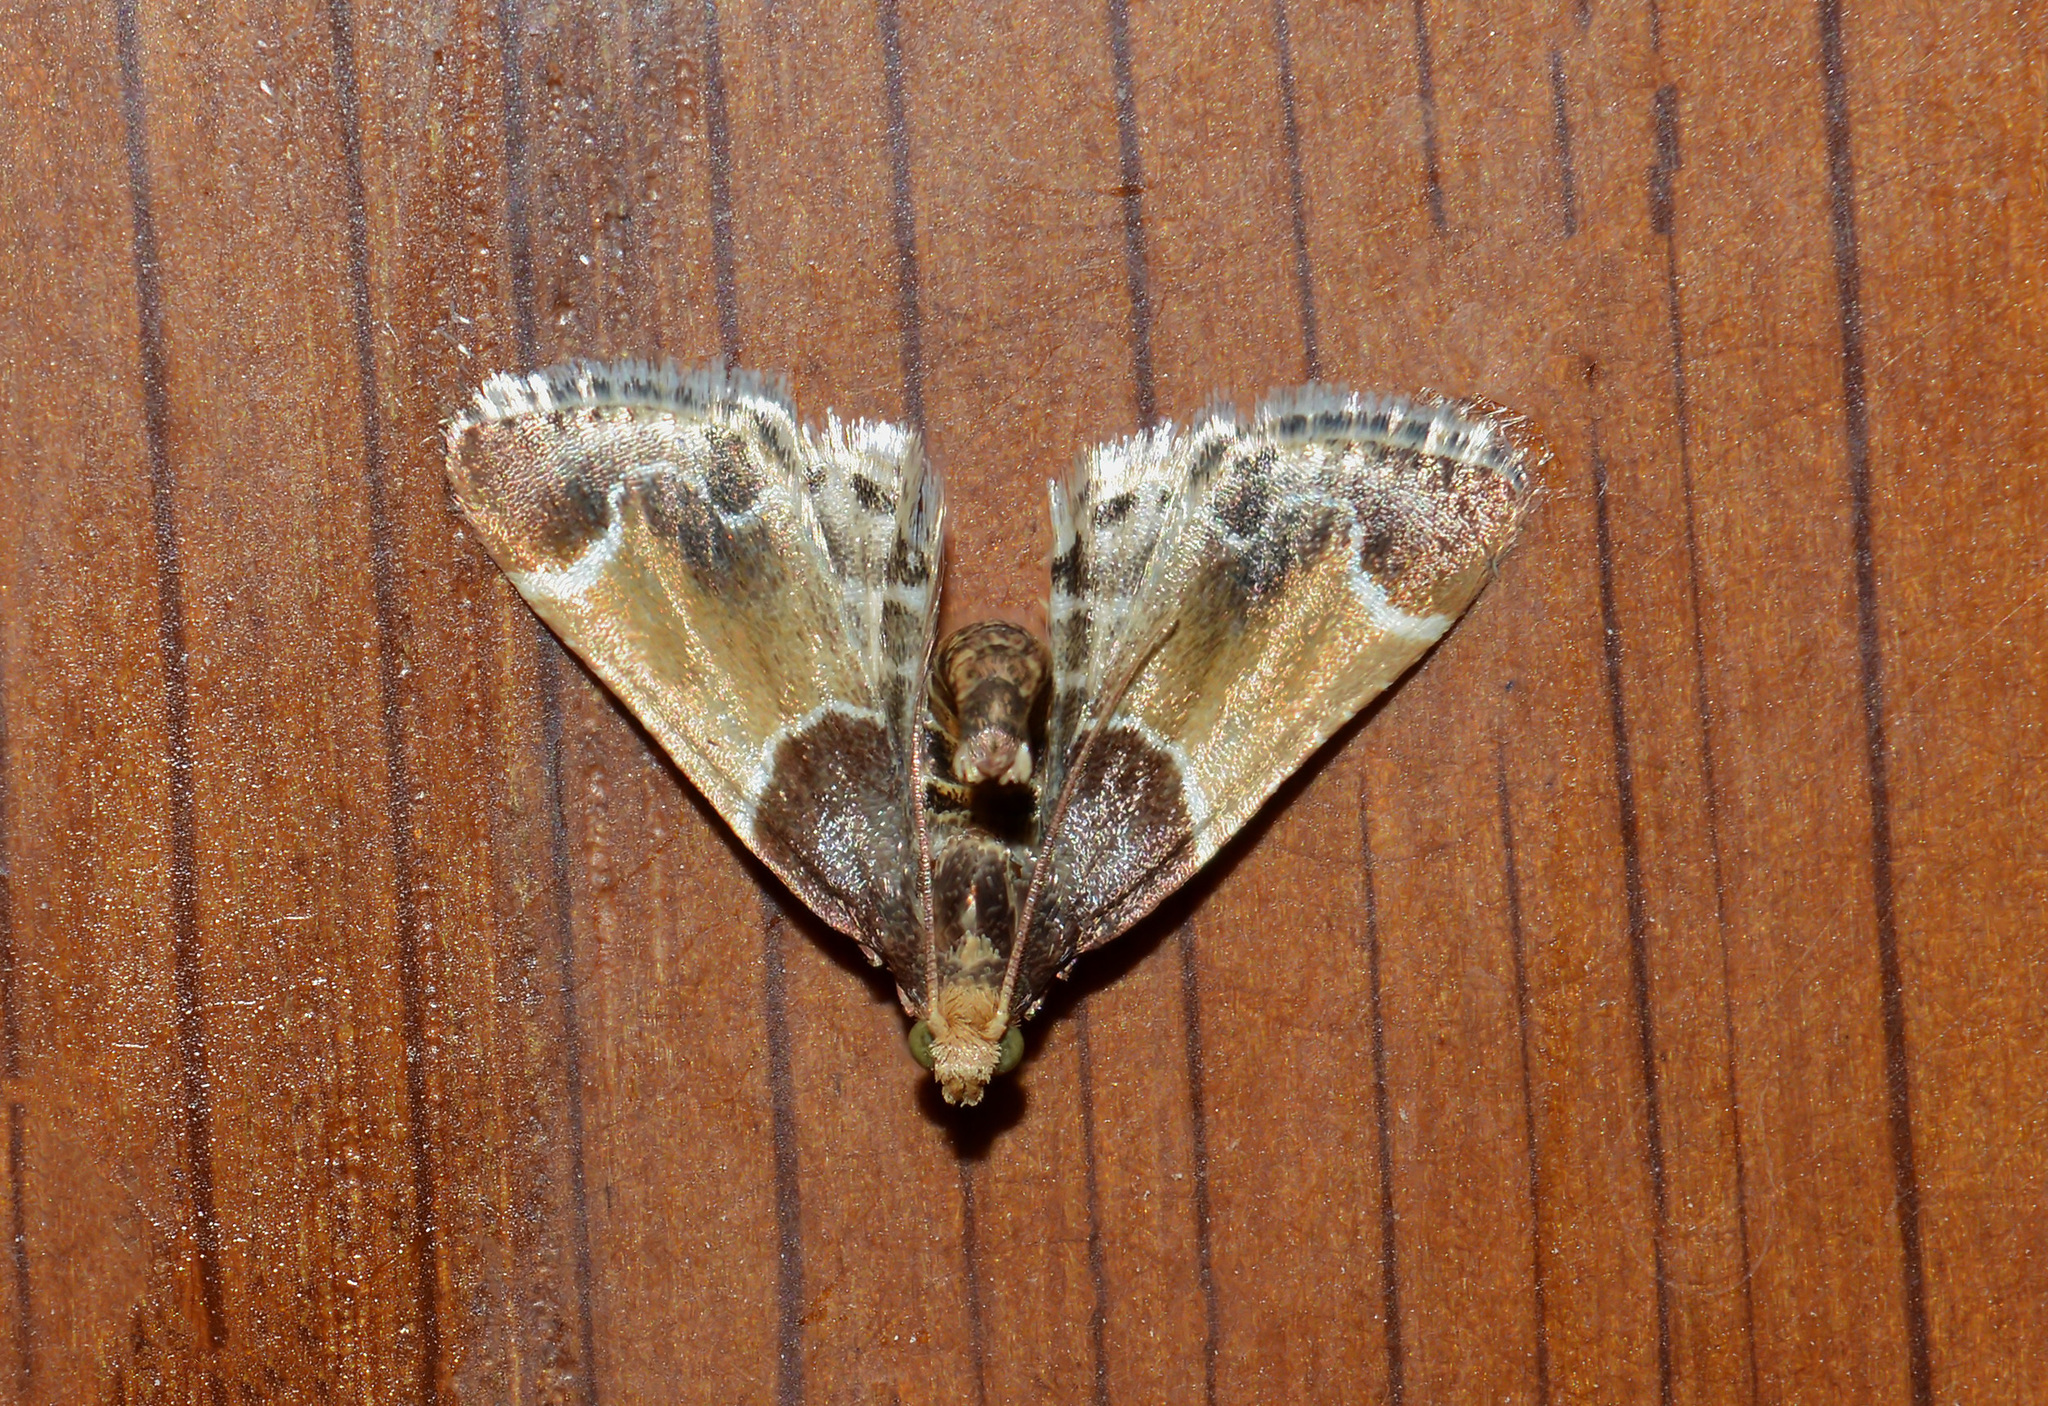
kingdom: Animalia
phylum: Arthropoda
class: Insecta
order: Lepidoptera
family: Pyralidae
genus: Pyralis
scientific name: Pyralis farinalis
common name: Meal moth
